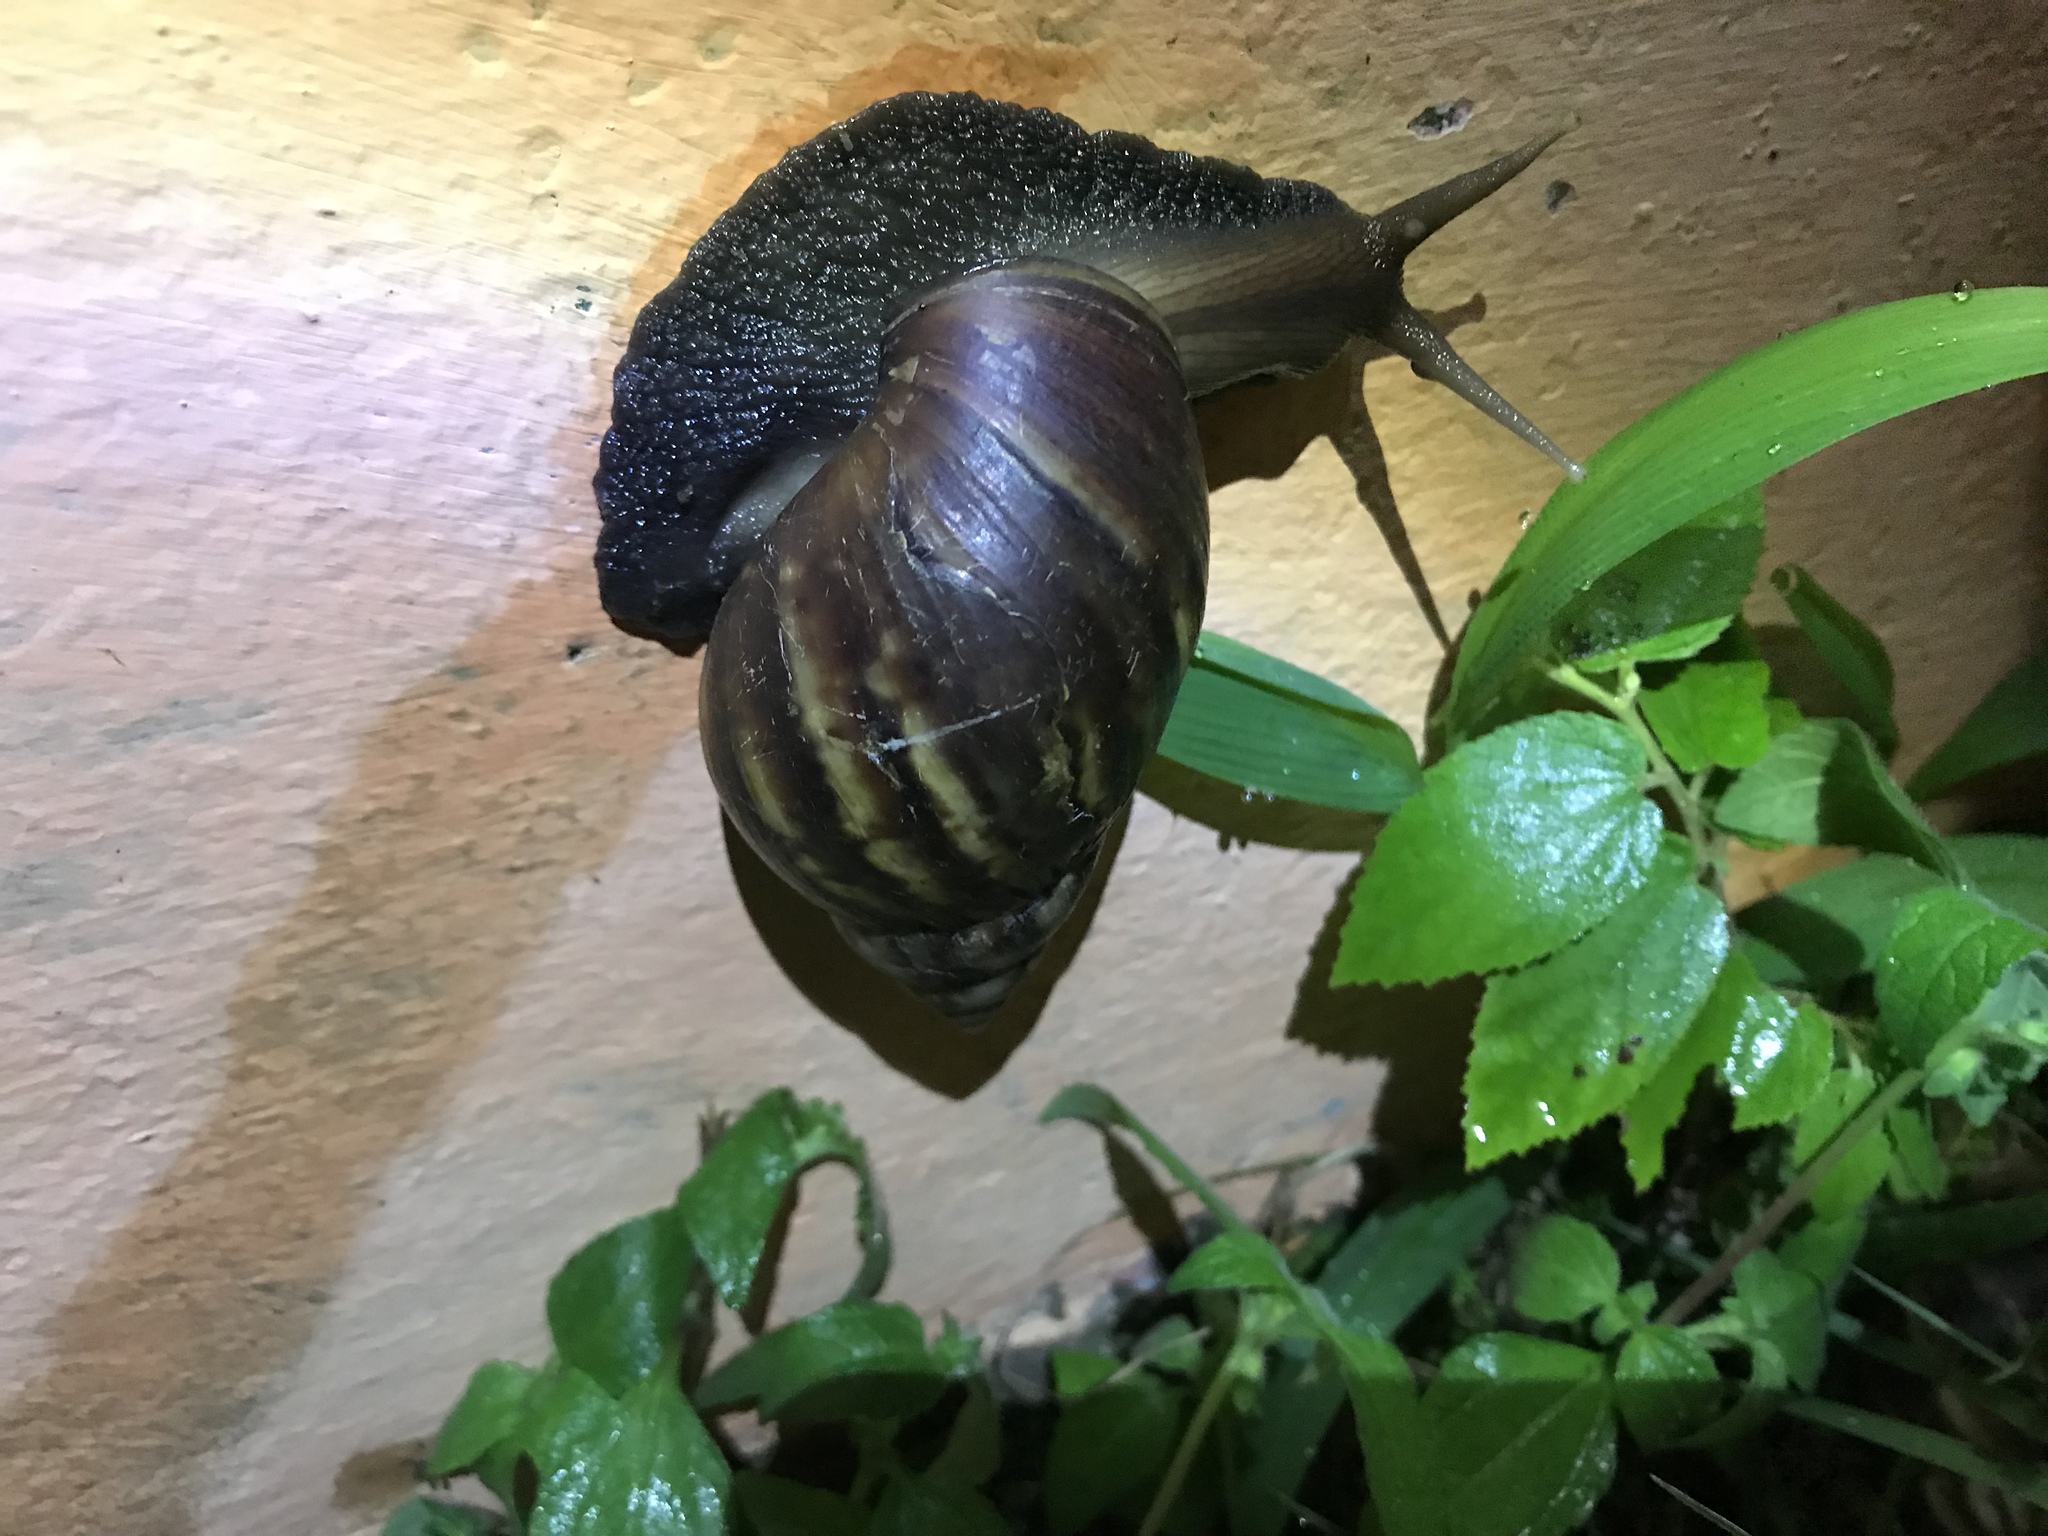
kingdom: Animalia
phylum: Mollusca
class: Gastropoda
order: Stylommatophora
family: Achatinidae
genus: Lissachatina
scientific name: Lissachatina fulica
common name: Giant african snail
